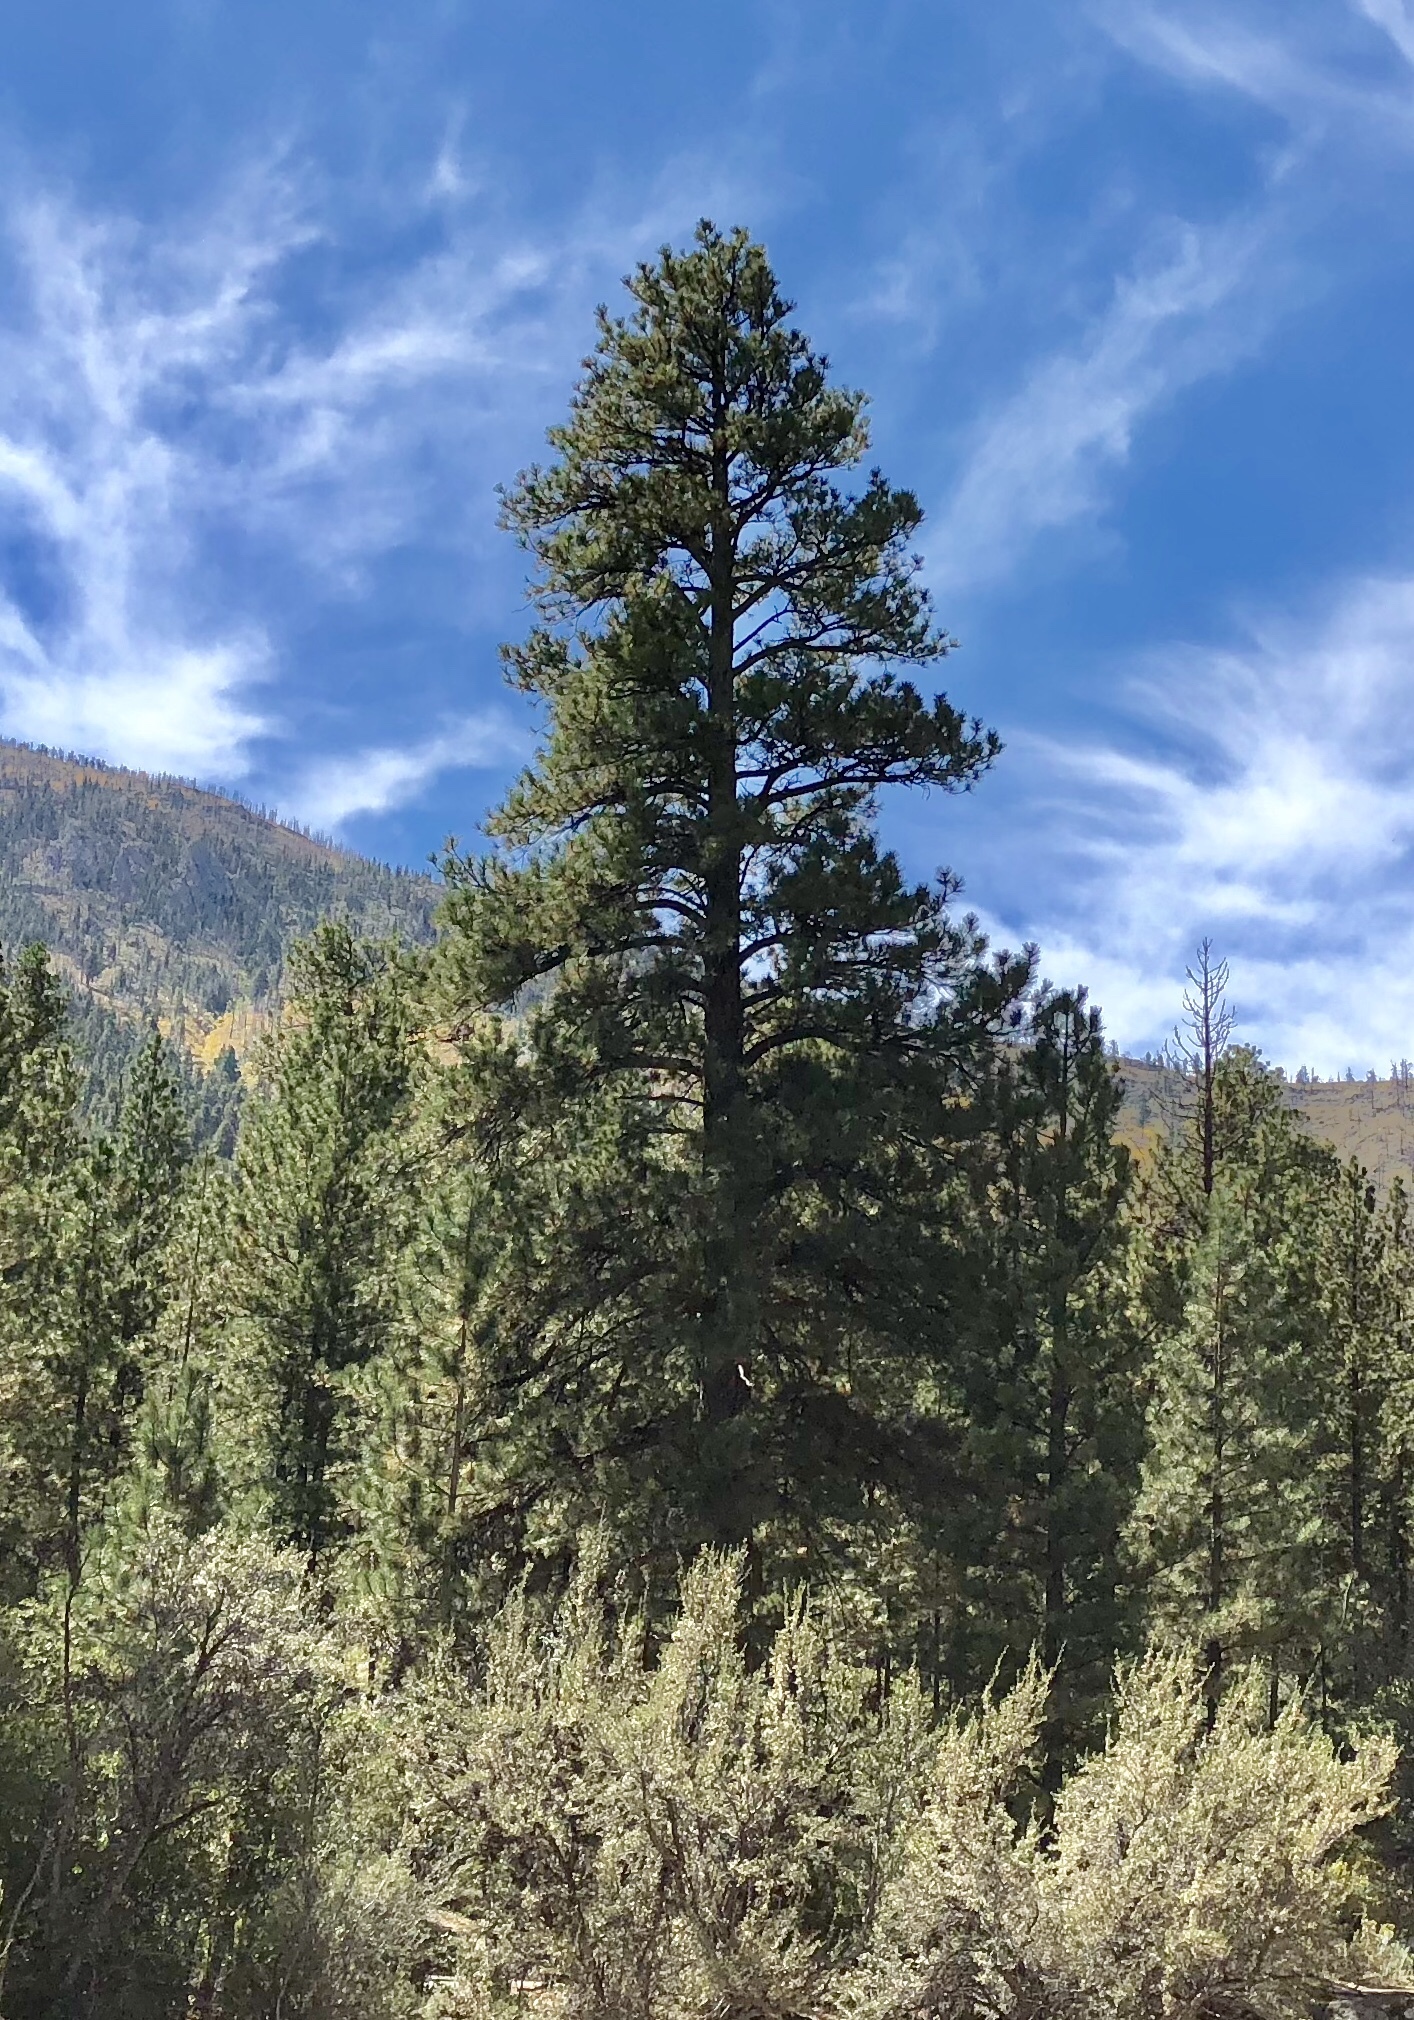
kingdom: Plantae
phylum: Tracheophyta
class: Pinopsida
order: Pinales
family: Pinaceae
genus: Pinus
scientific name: Pinus ponderosa
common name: Western yellow-pine
